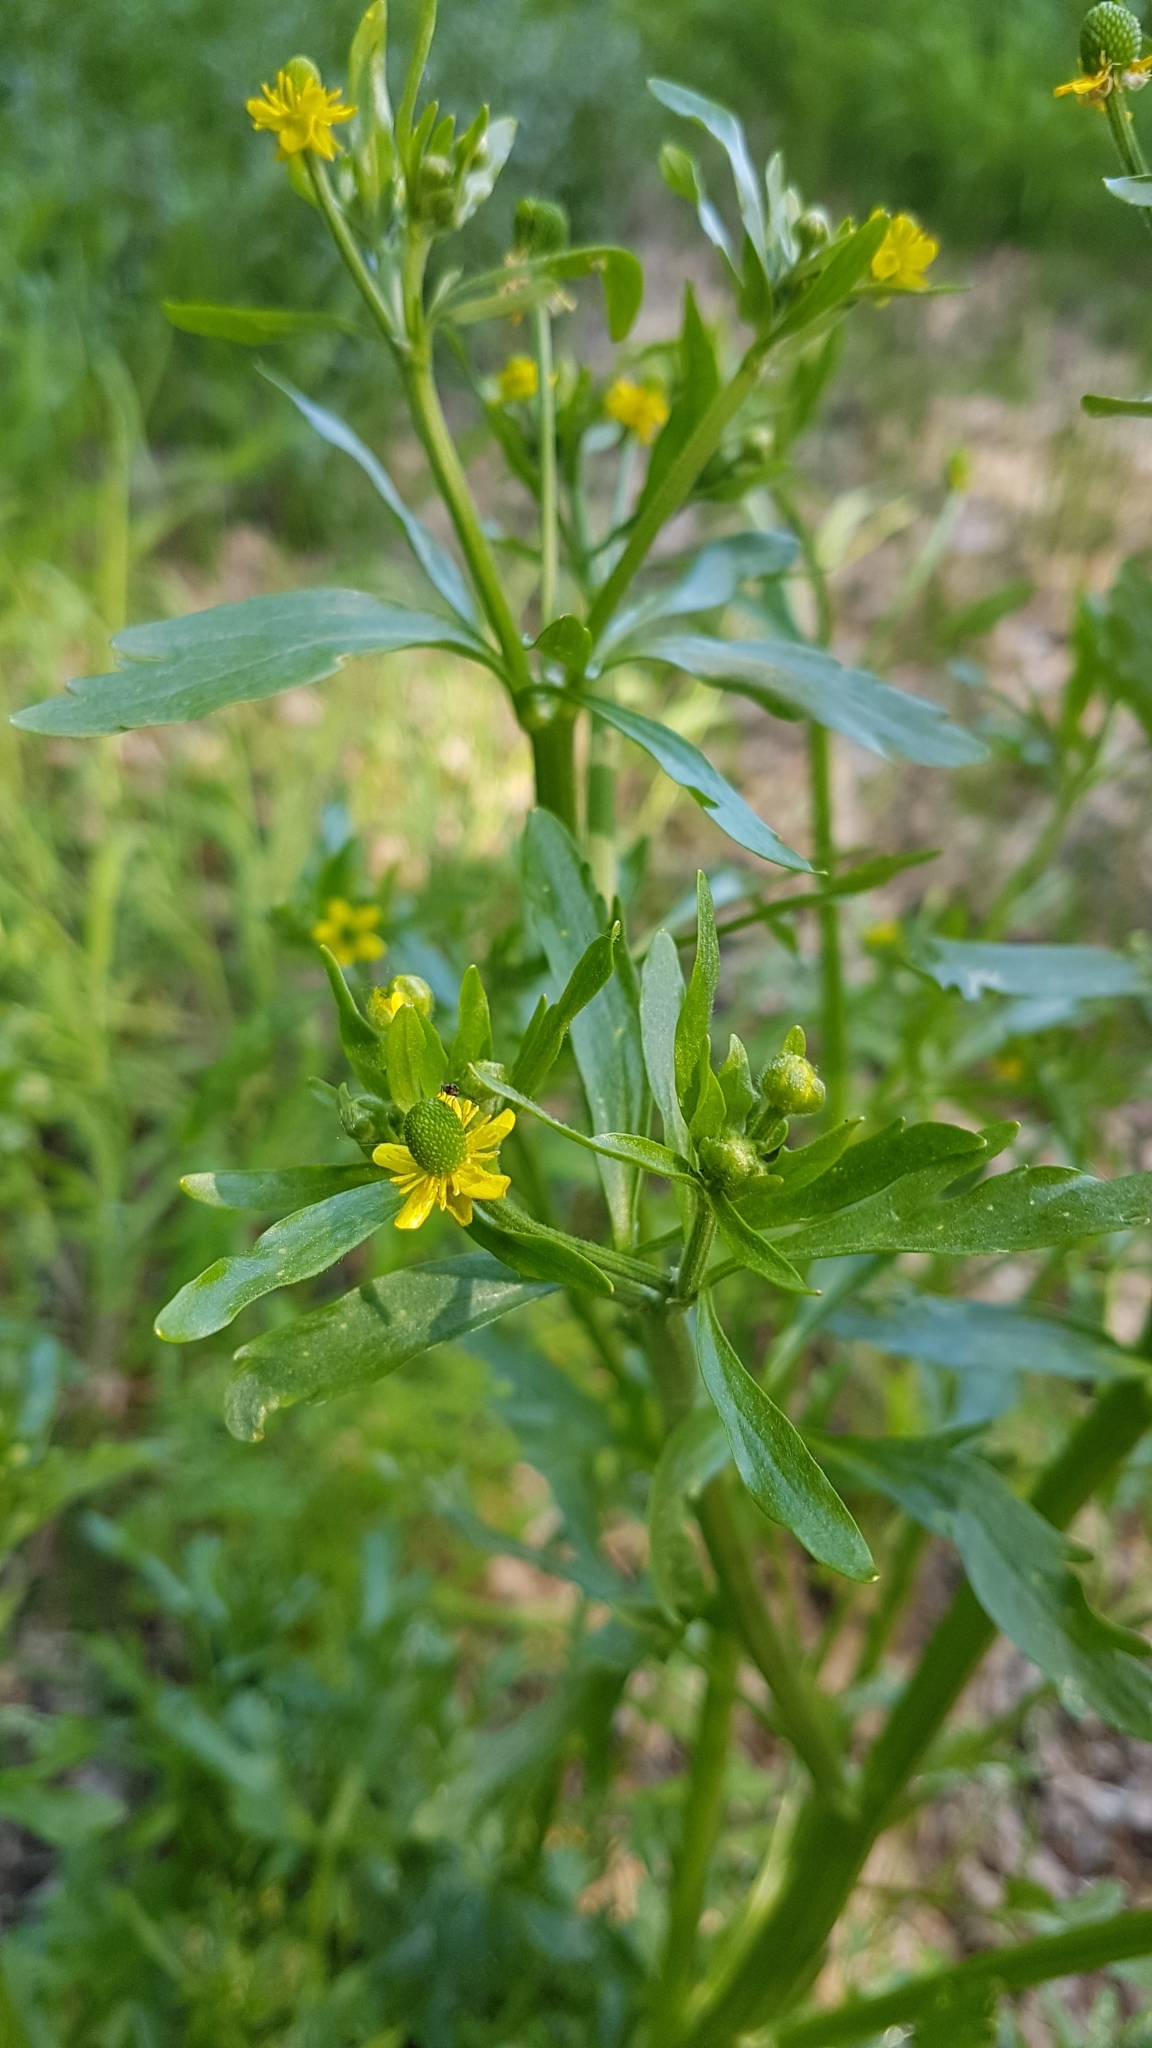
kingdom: Plantae
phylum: Tracheophyta
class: Magnoliopsida
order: Ranunculales
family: Ranunculaceae
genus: Ranunculus
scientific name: Ranunculus sceleratus
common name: Celery-leaved buttercup
